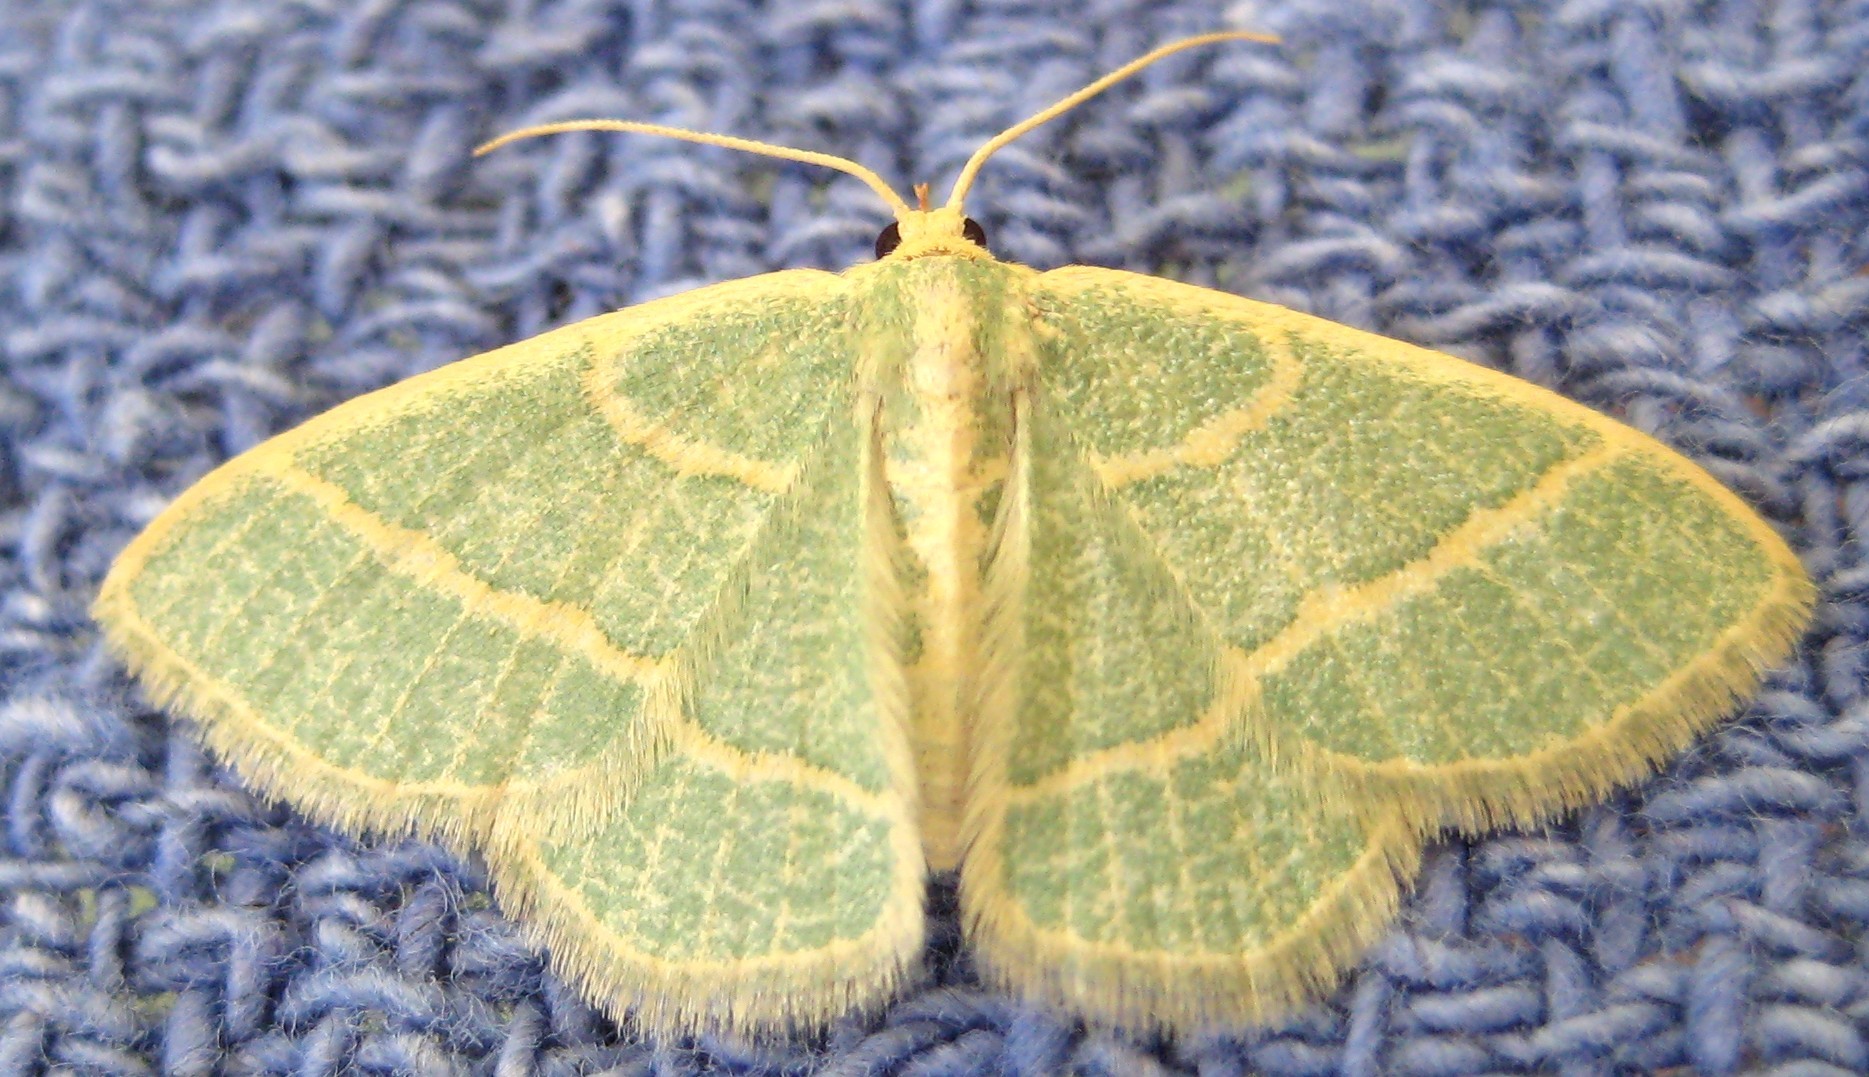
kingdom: Animalia
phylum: Arthropoda
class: Insecta
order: Lepidoptera
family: Geometridae
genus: Chlorochlamys
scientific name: Chlorochlamys chloroleucaria
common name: Blackberry looper
